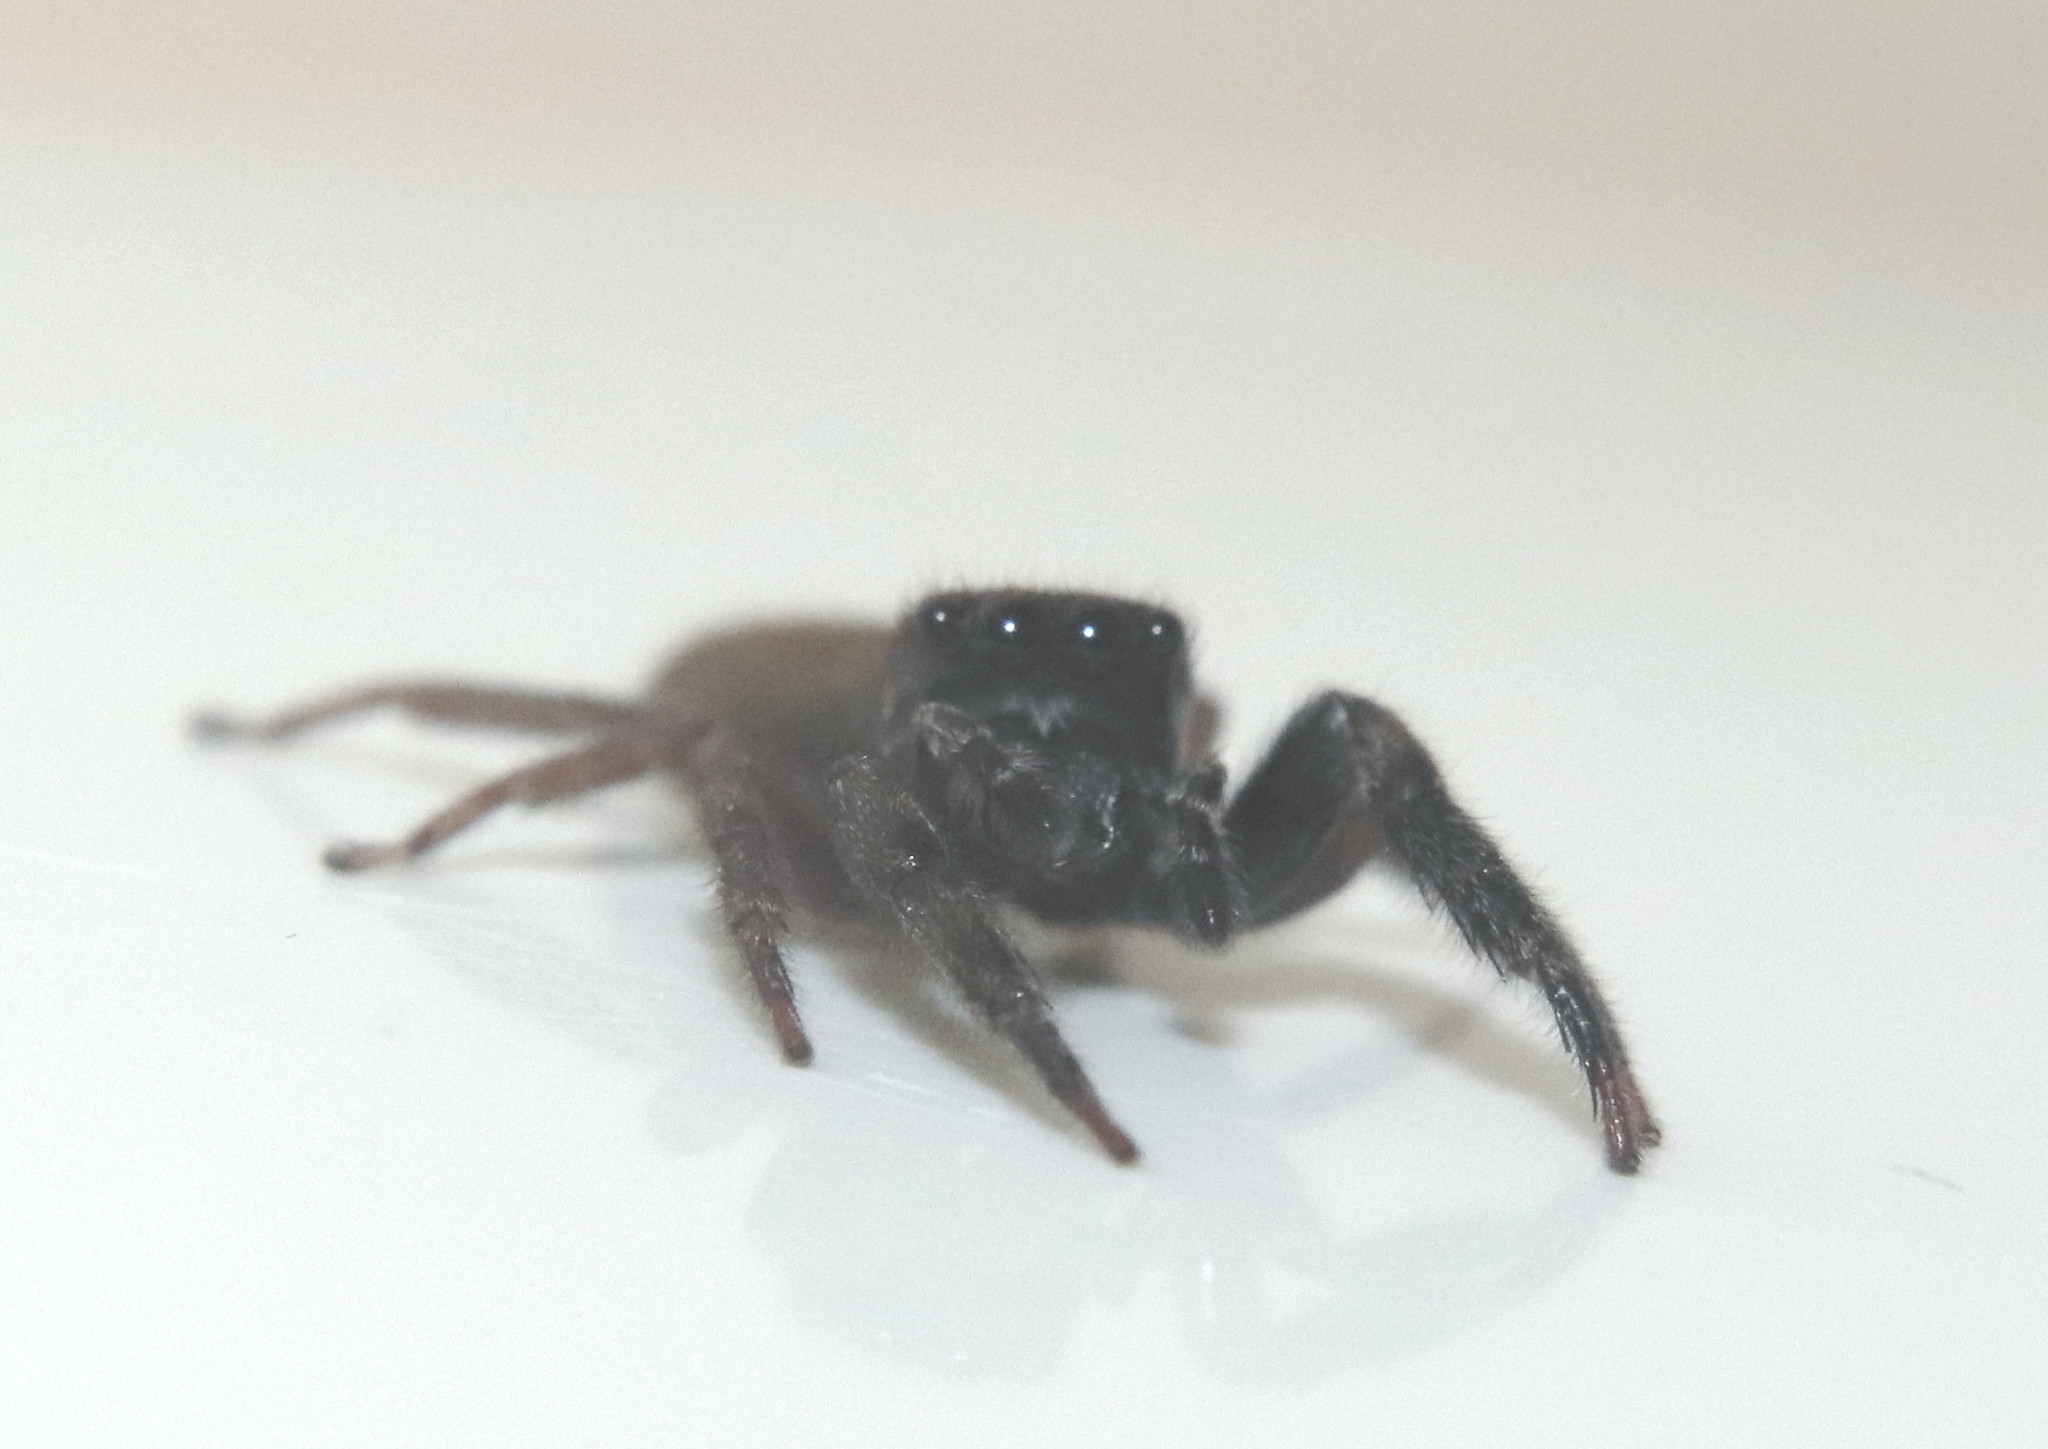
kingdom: Animalia
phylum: Arthropoda
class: Arachnida
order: Araneae
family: Salticidae
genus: Trite
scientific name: Trite auricoma
